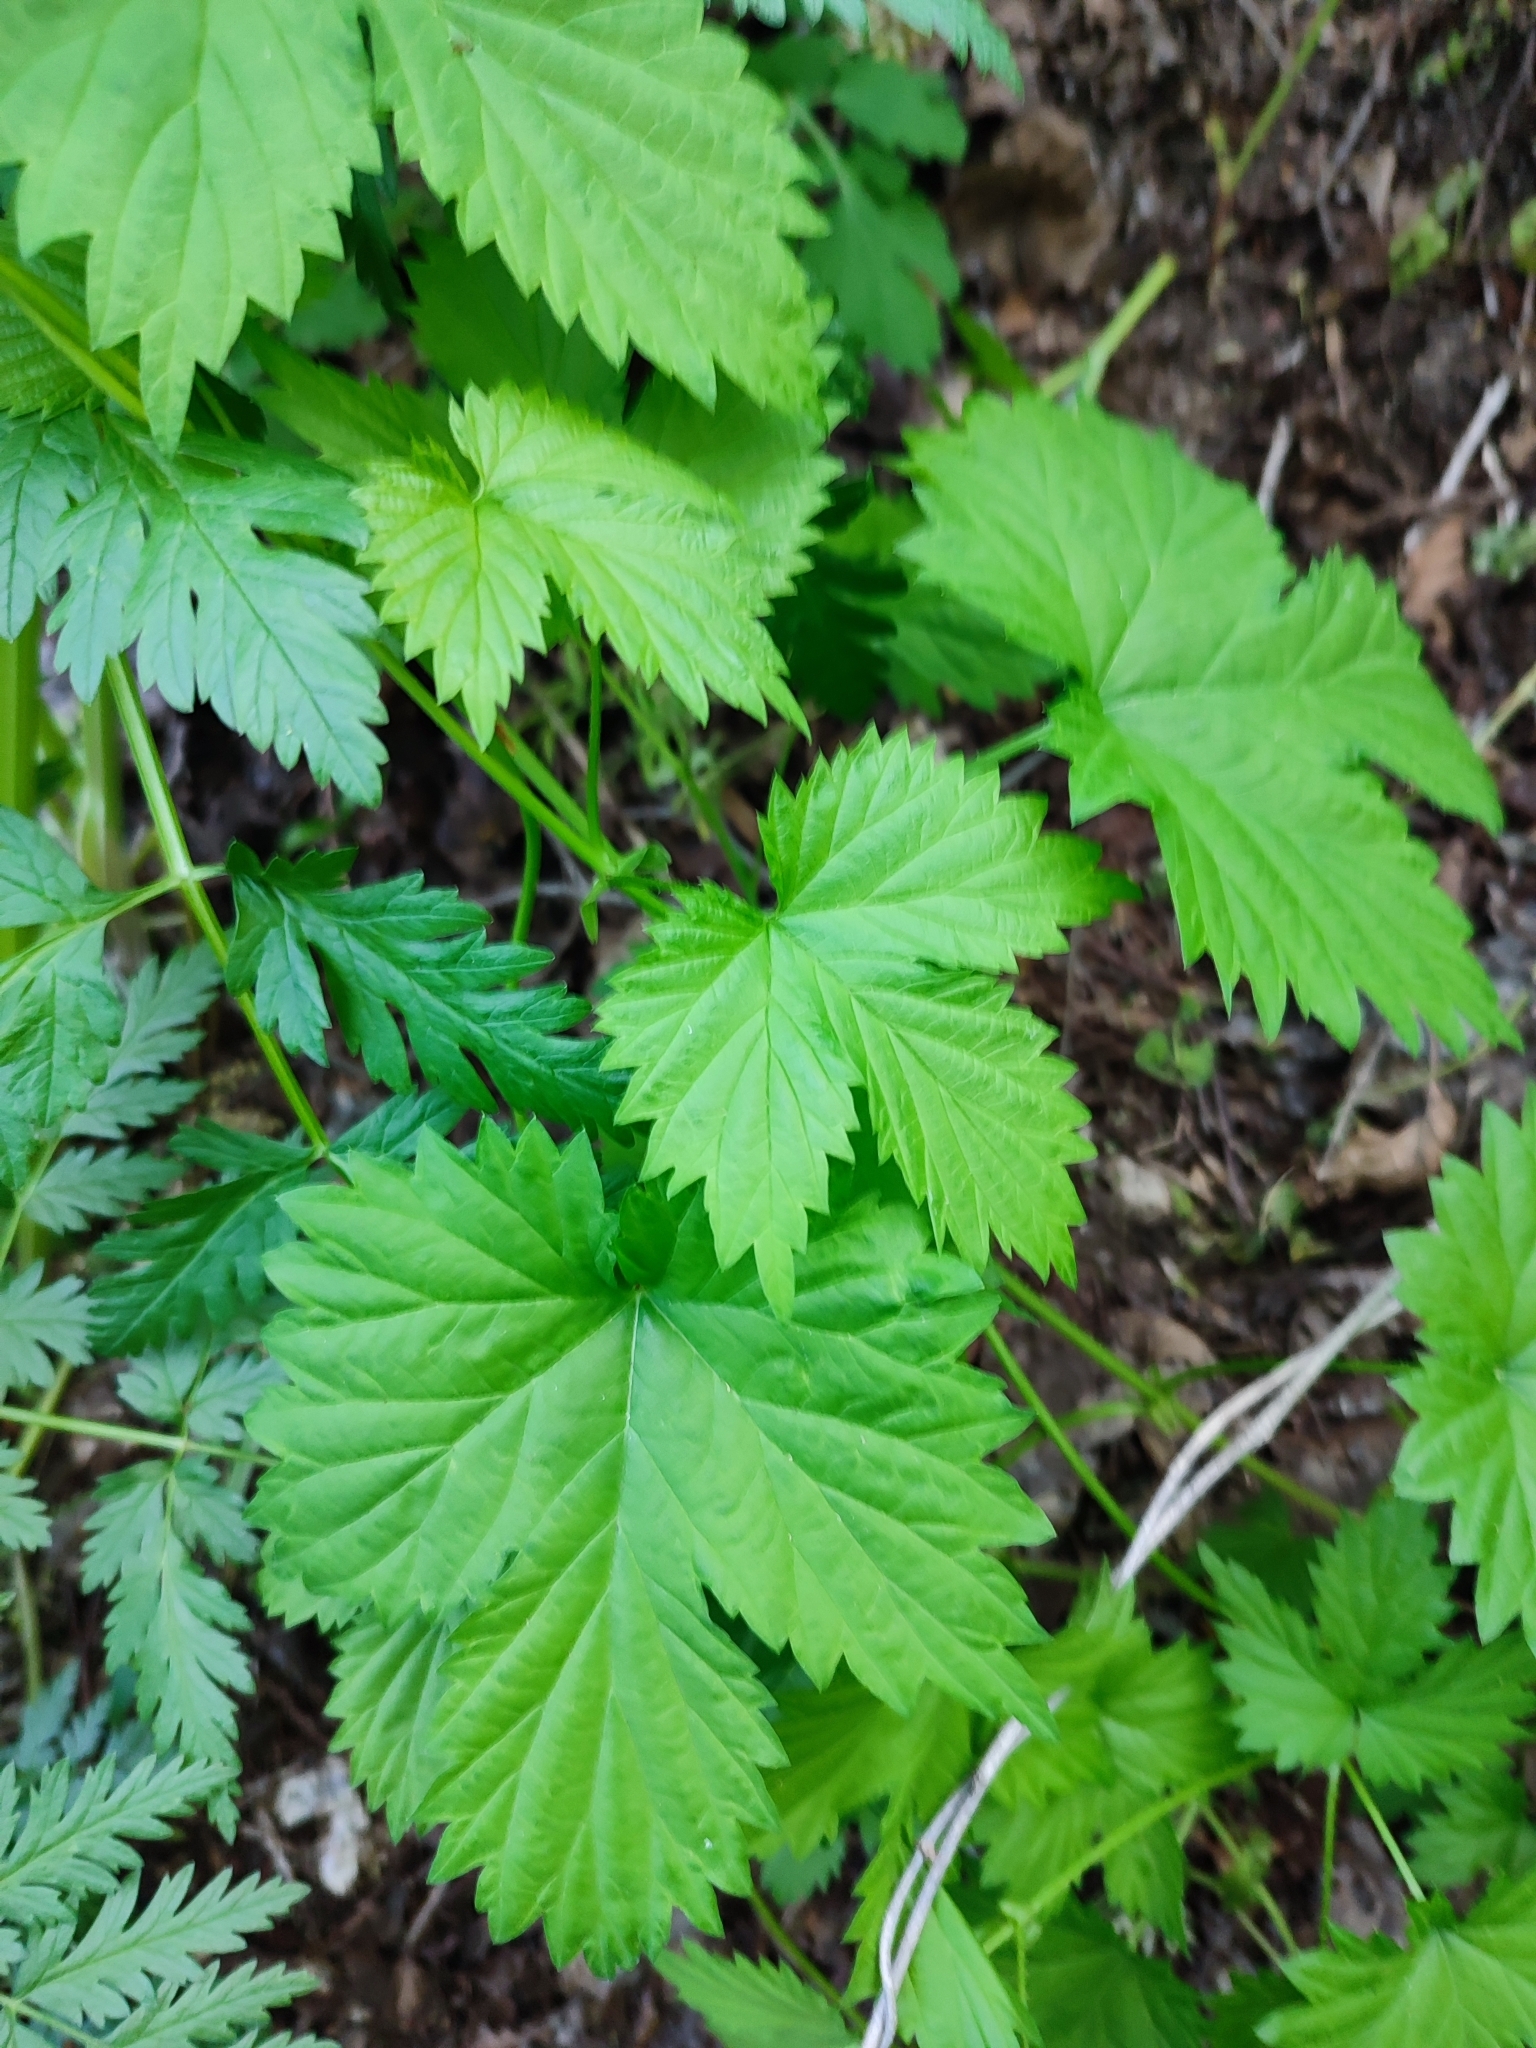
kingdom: Plantae
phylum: Tracheophyta
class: Magnoliopsida
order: Rosales
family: Cannabaceae
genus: Humulus
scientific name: Humulus lupulus
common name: Hop
